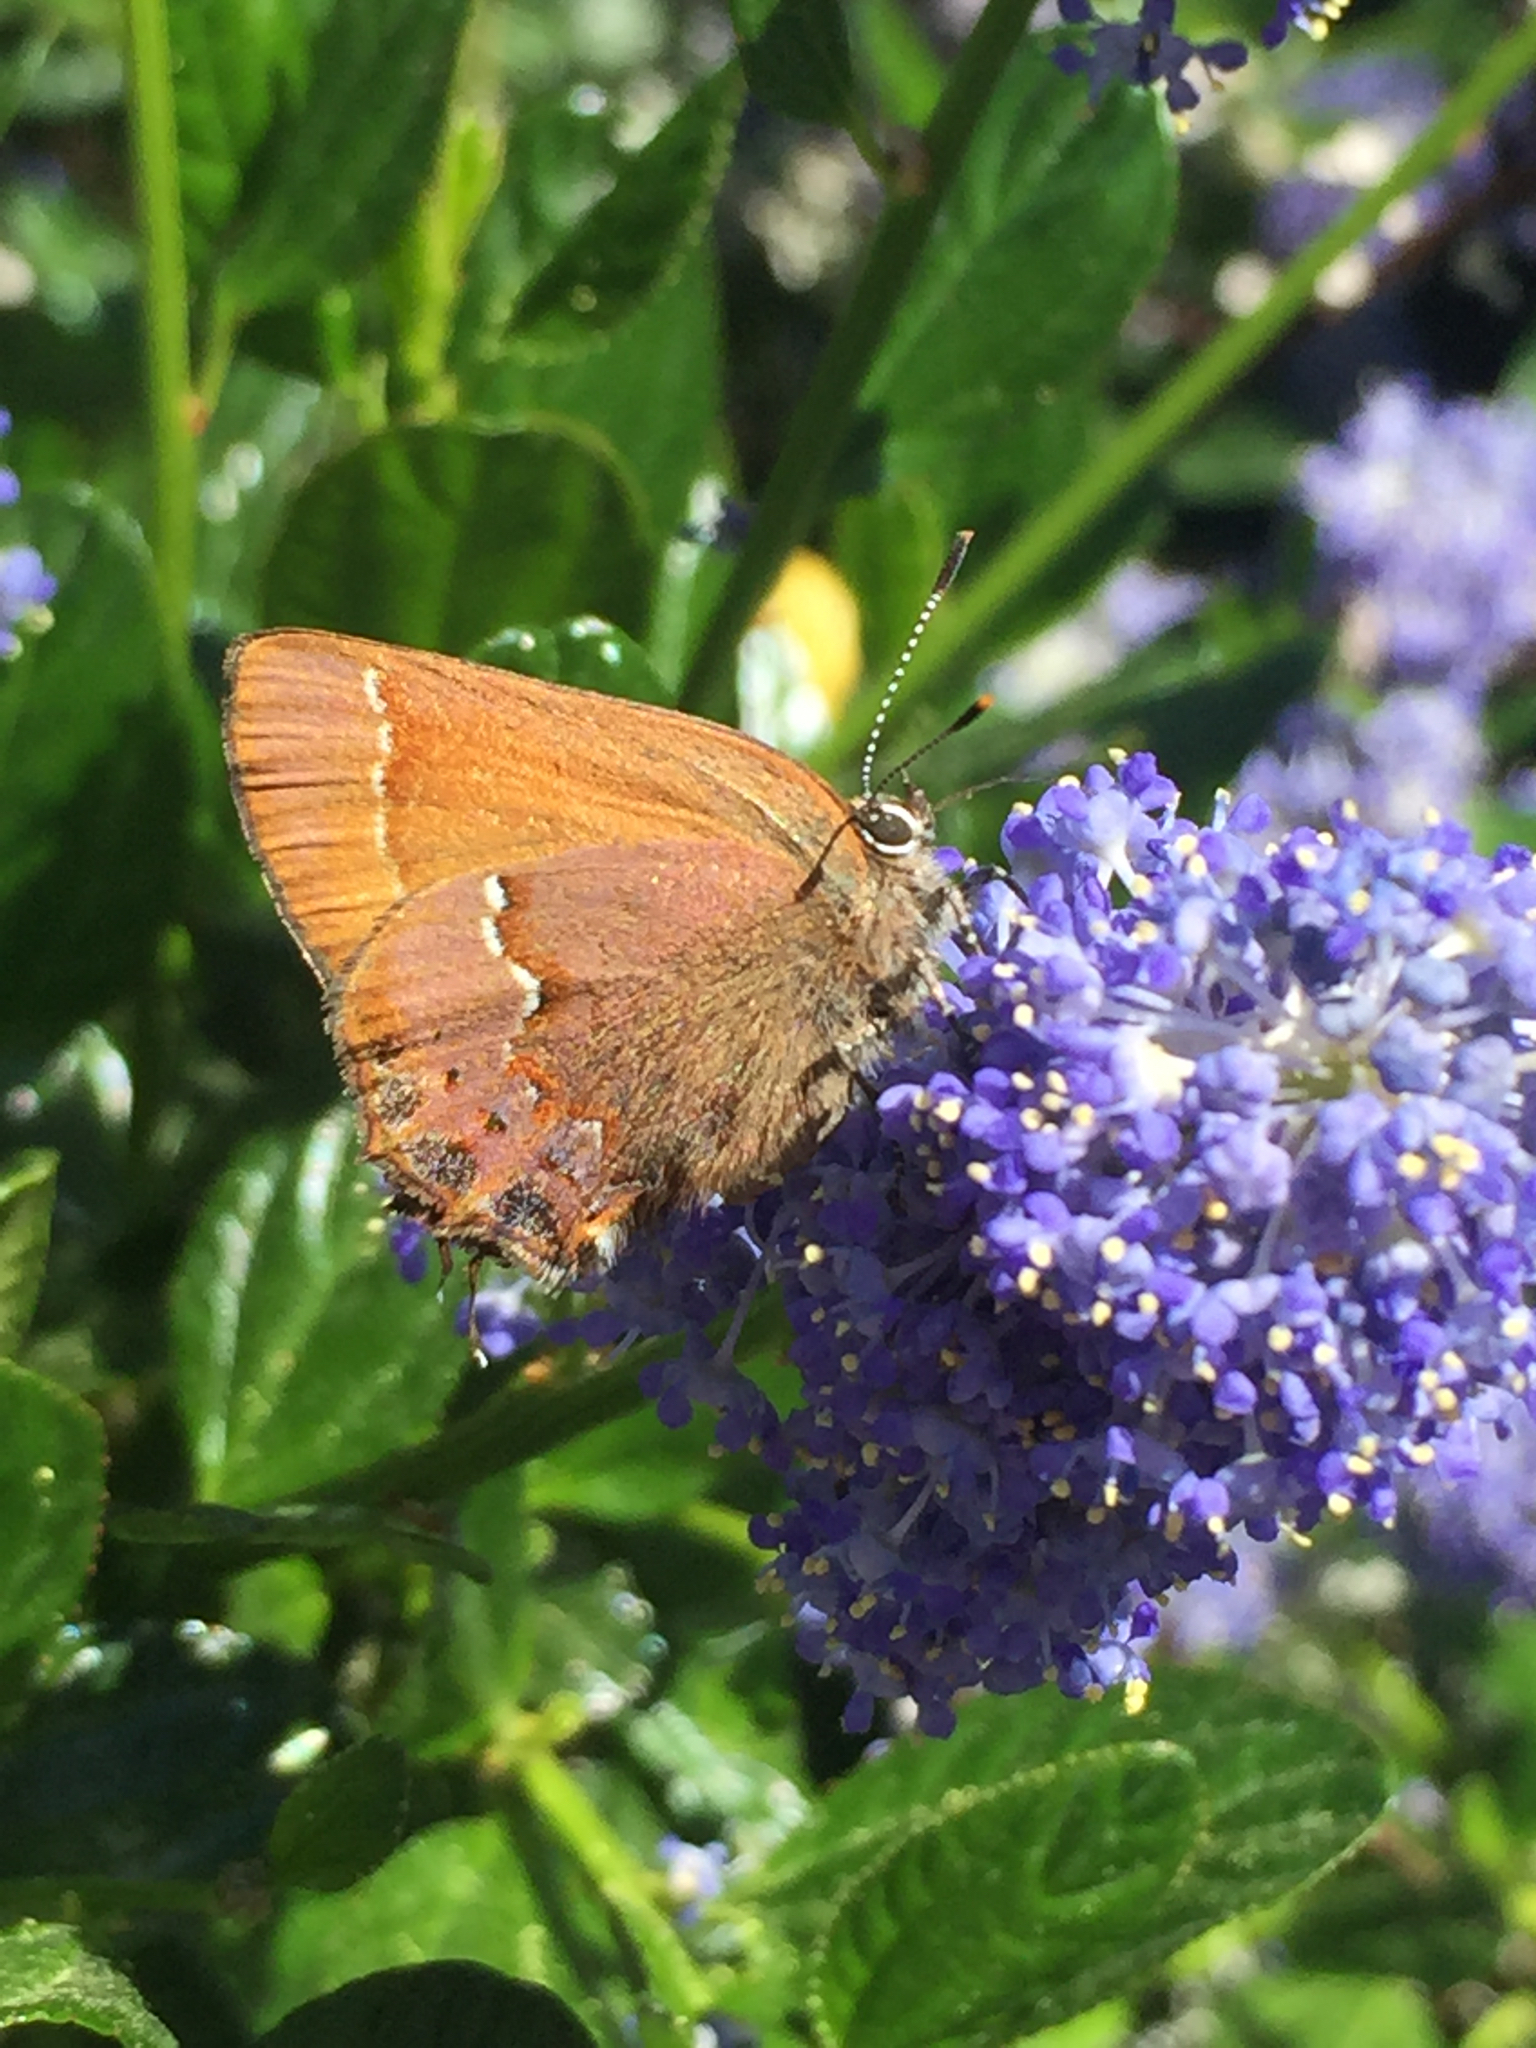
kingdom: Animalia
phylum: Arthropoda
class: Insecta
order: Lepidoptera
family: Lycaenidae
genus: Mitoura
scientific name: Mitoura gryneus
